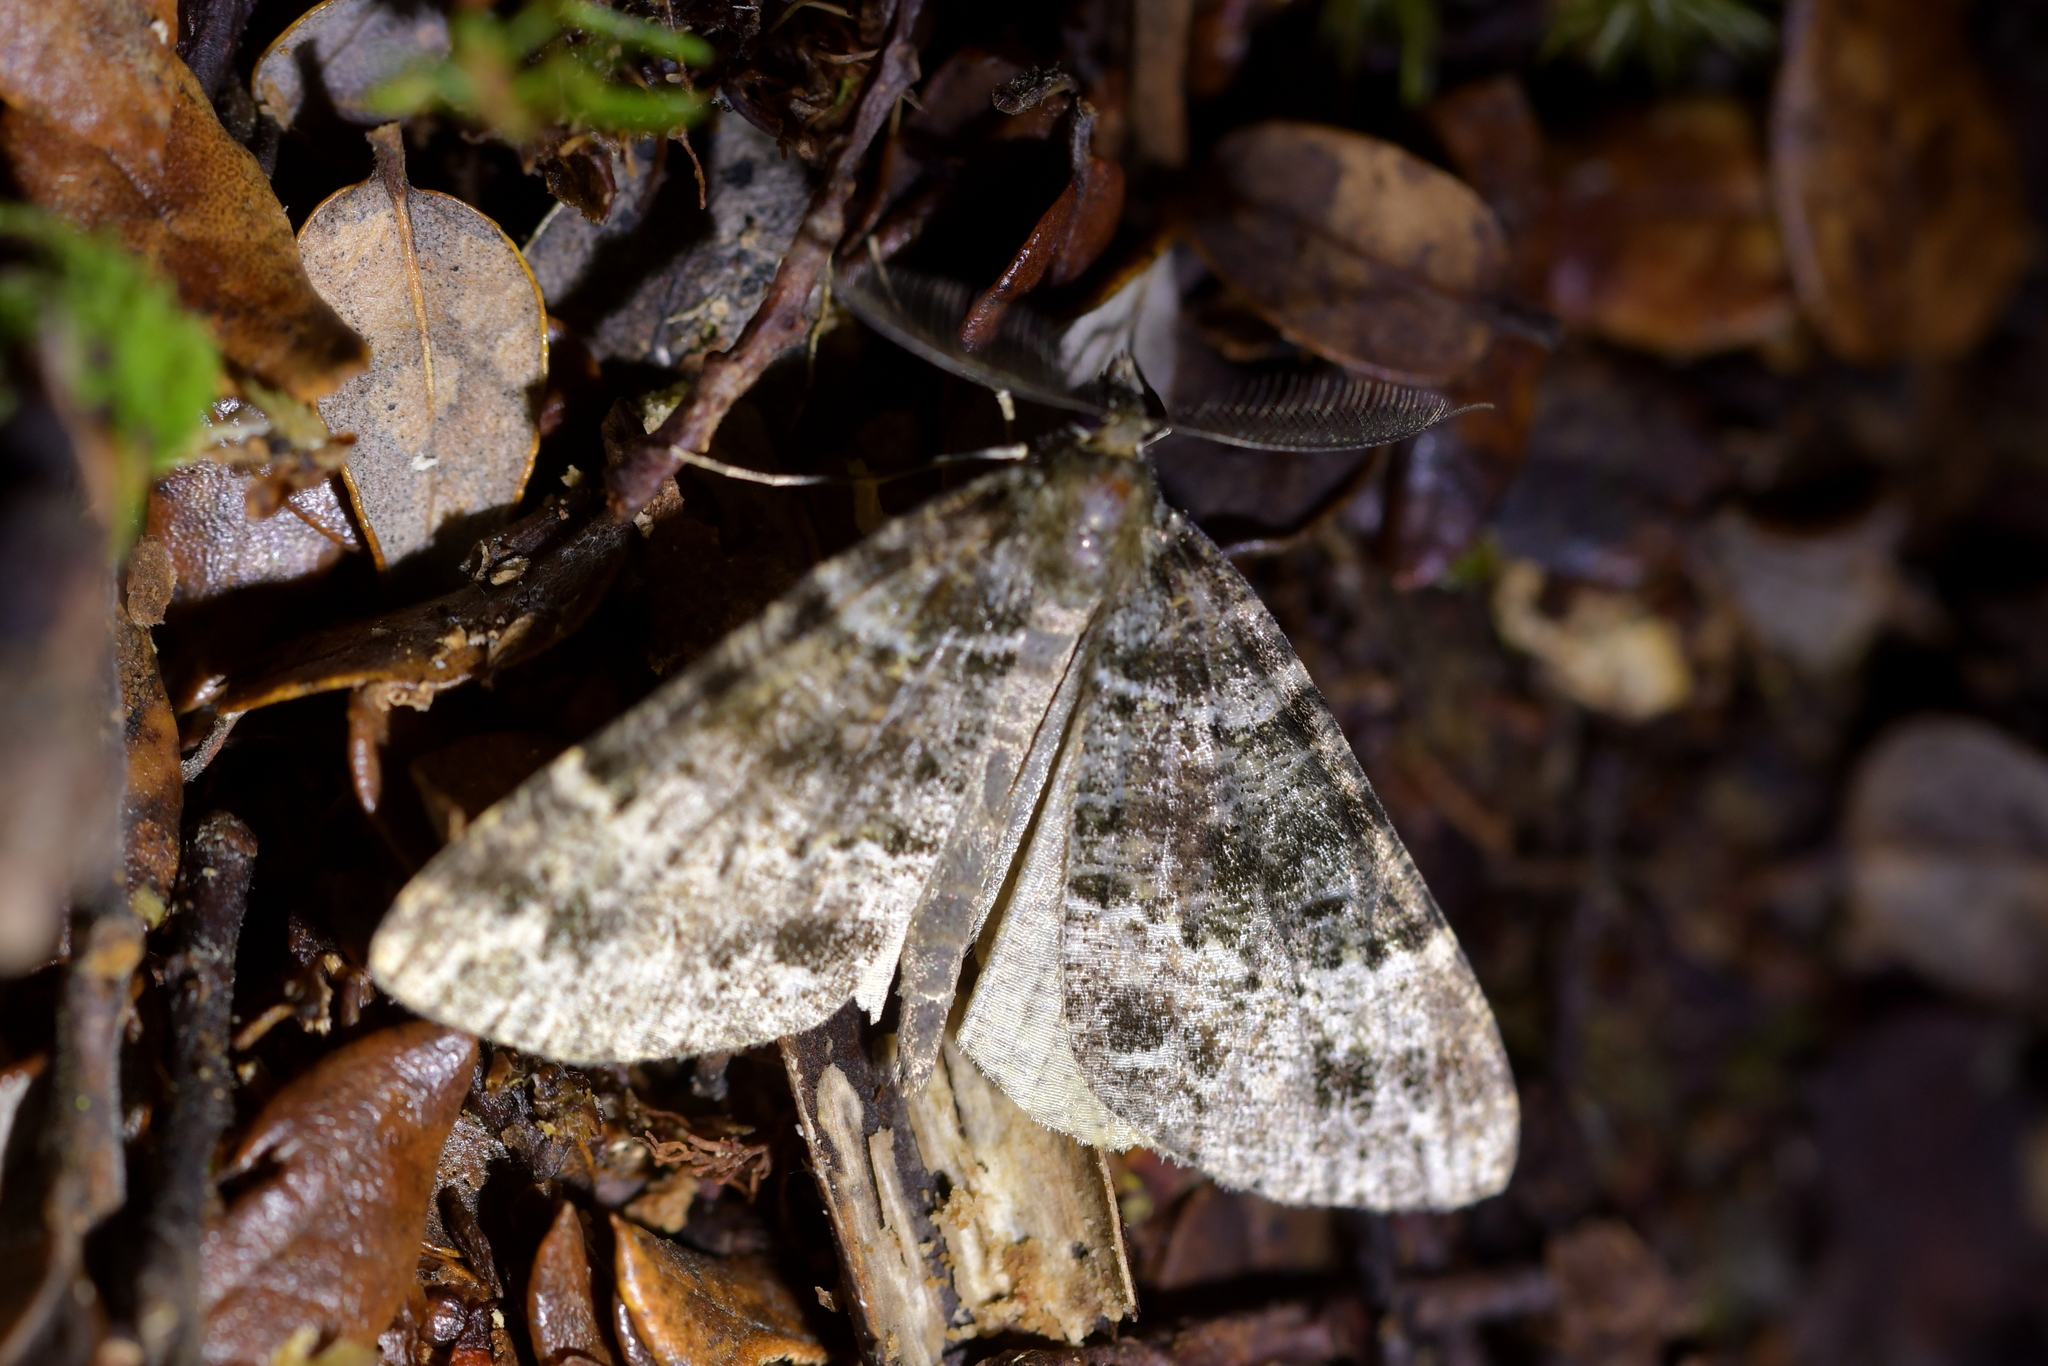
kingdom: Animalia
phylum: Arthropoda
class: Insecta
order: Lepidoptera
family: Geometridae
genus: Pseudocoremia
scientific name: Pseudocoremia productata
